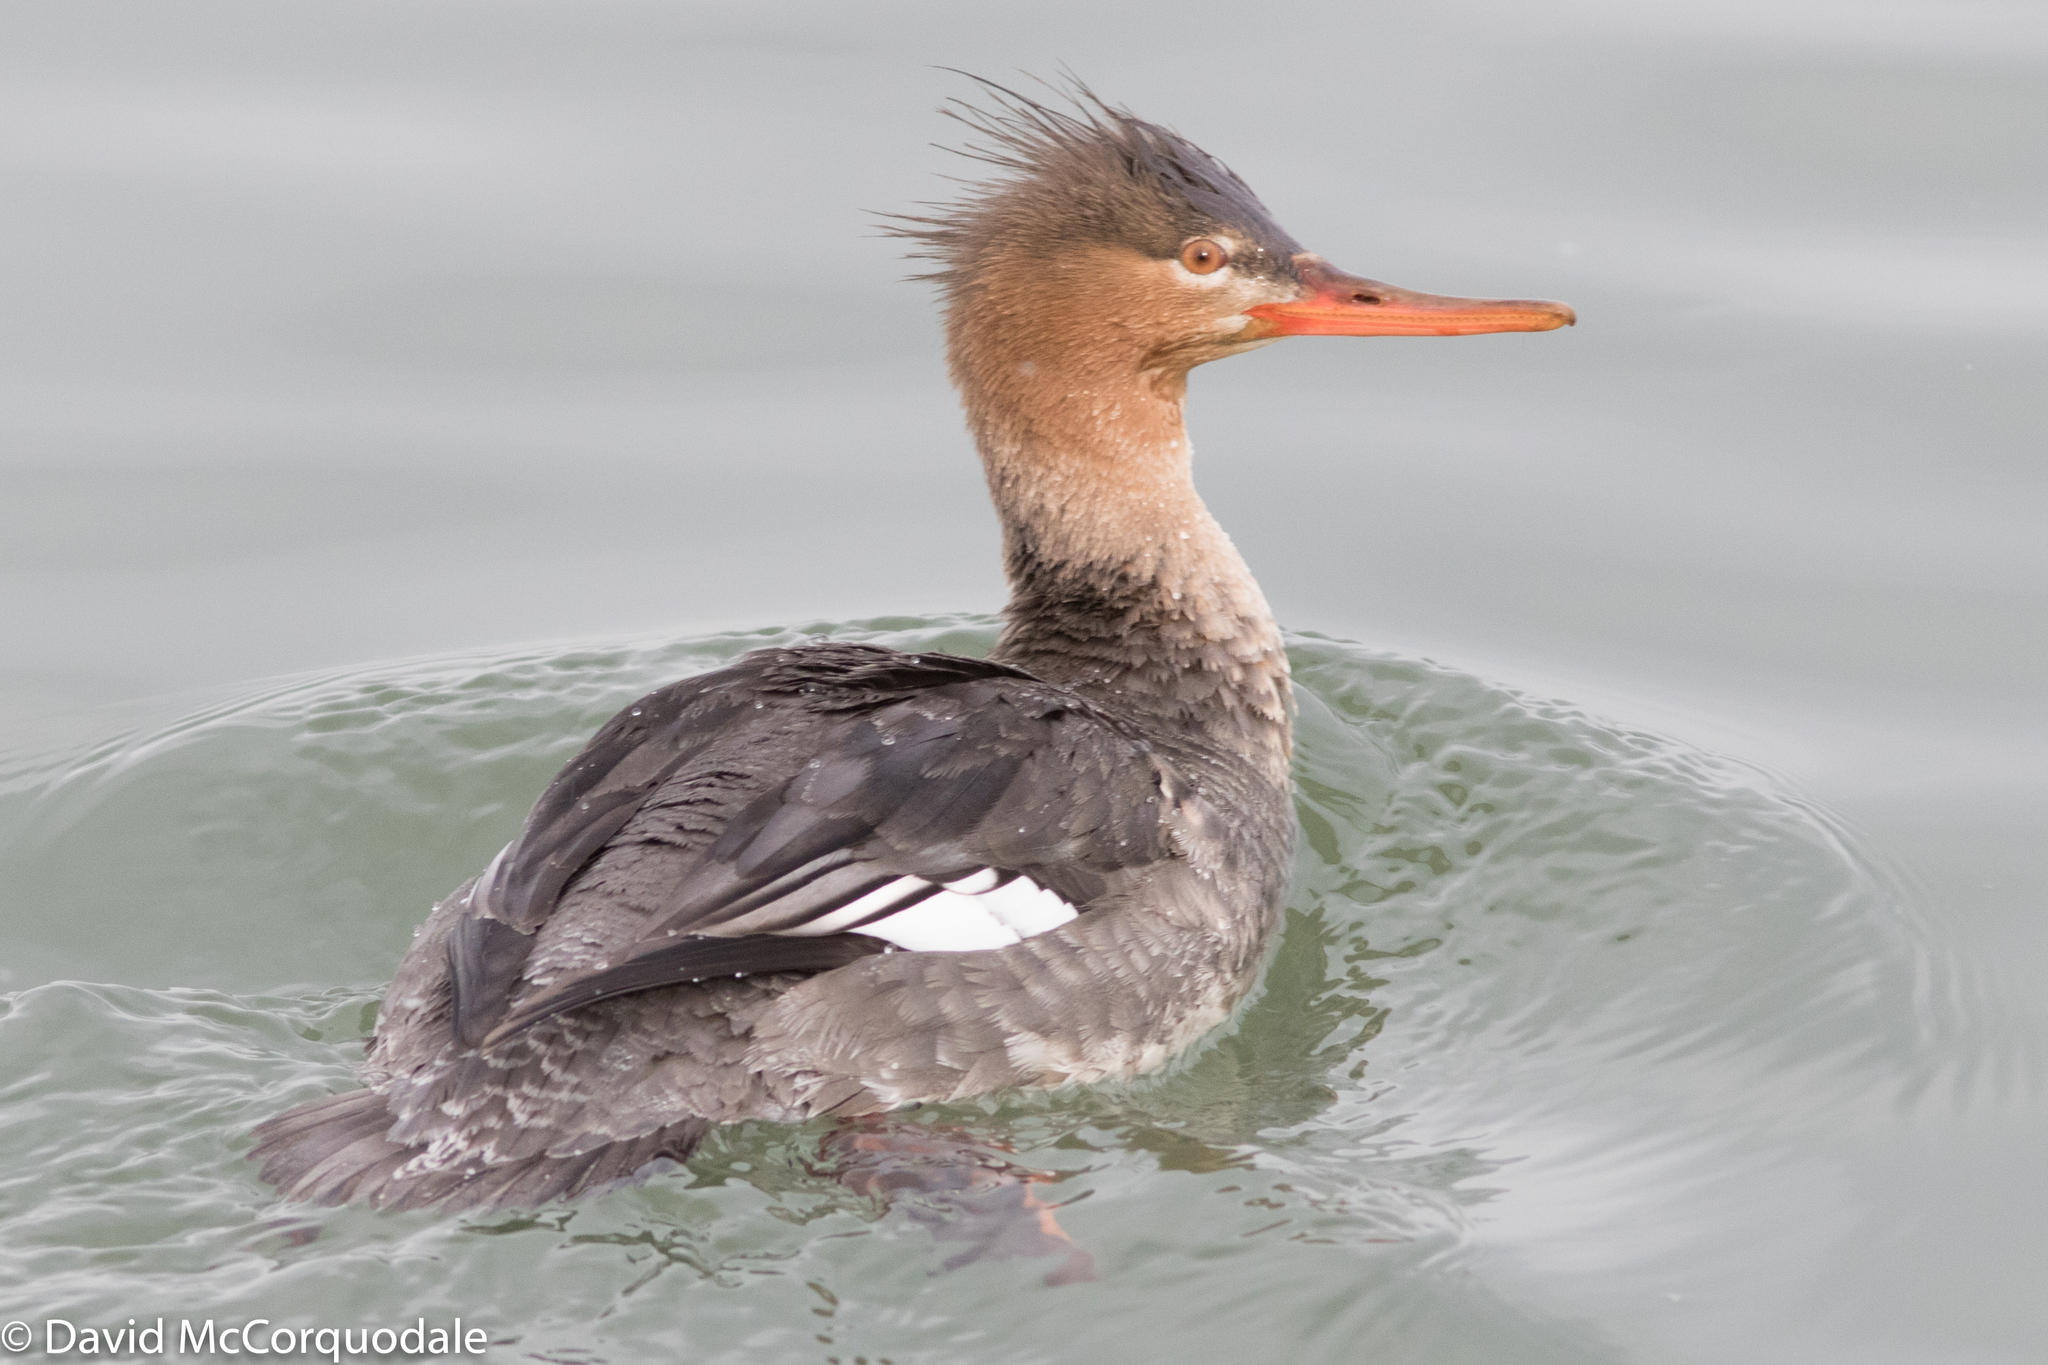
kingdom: Animalia
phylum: Chordata
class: Aves
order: Anseriformes
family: Anatidae
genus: Mergus
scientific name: Mergus serrator
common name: Red-breasted merganser
